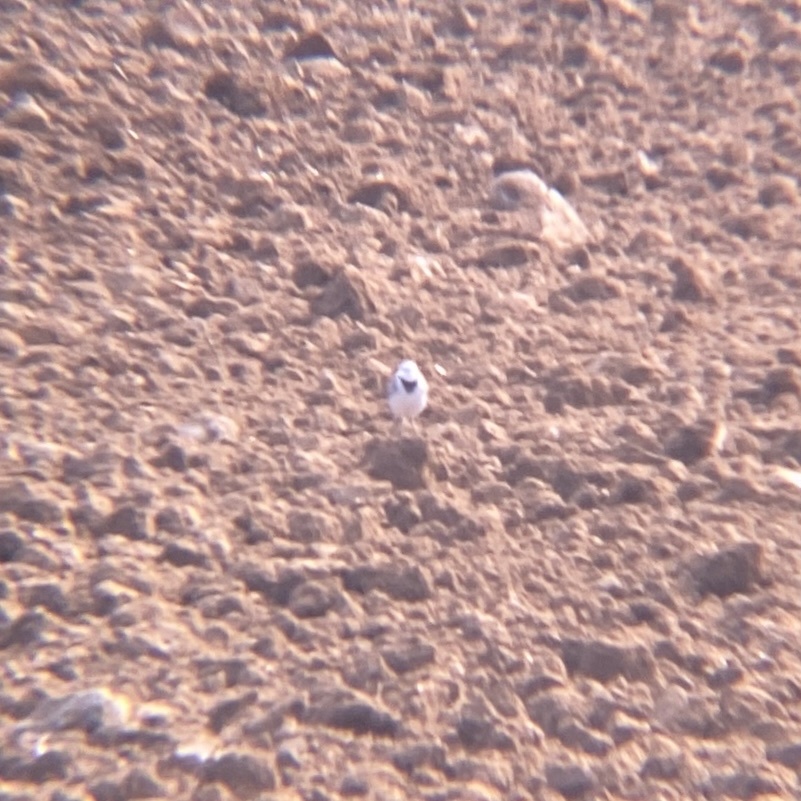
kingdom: Animalia
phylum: Chordata
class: Aves
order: Passeriformes
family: Motacillidae
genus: Motacilla
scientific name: Motacilla alba
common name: White wagtail
